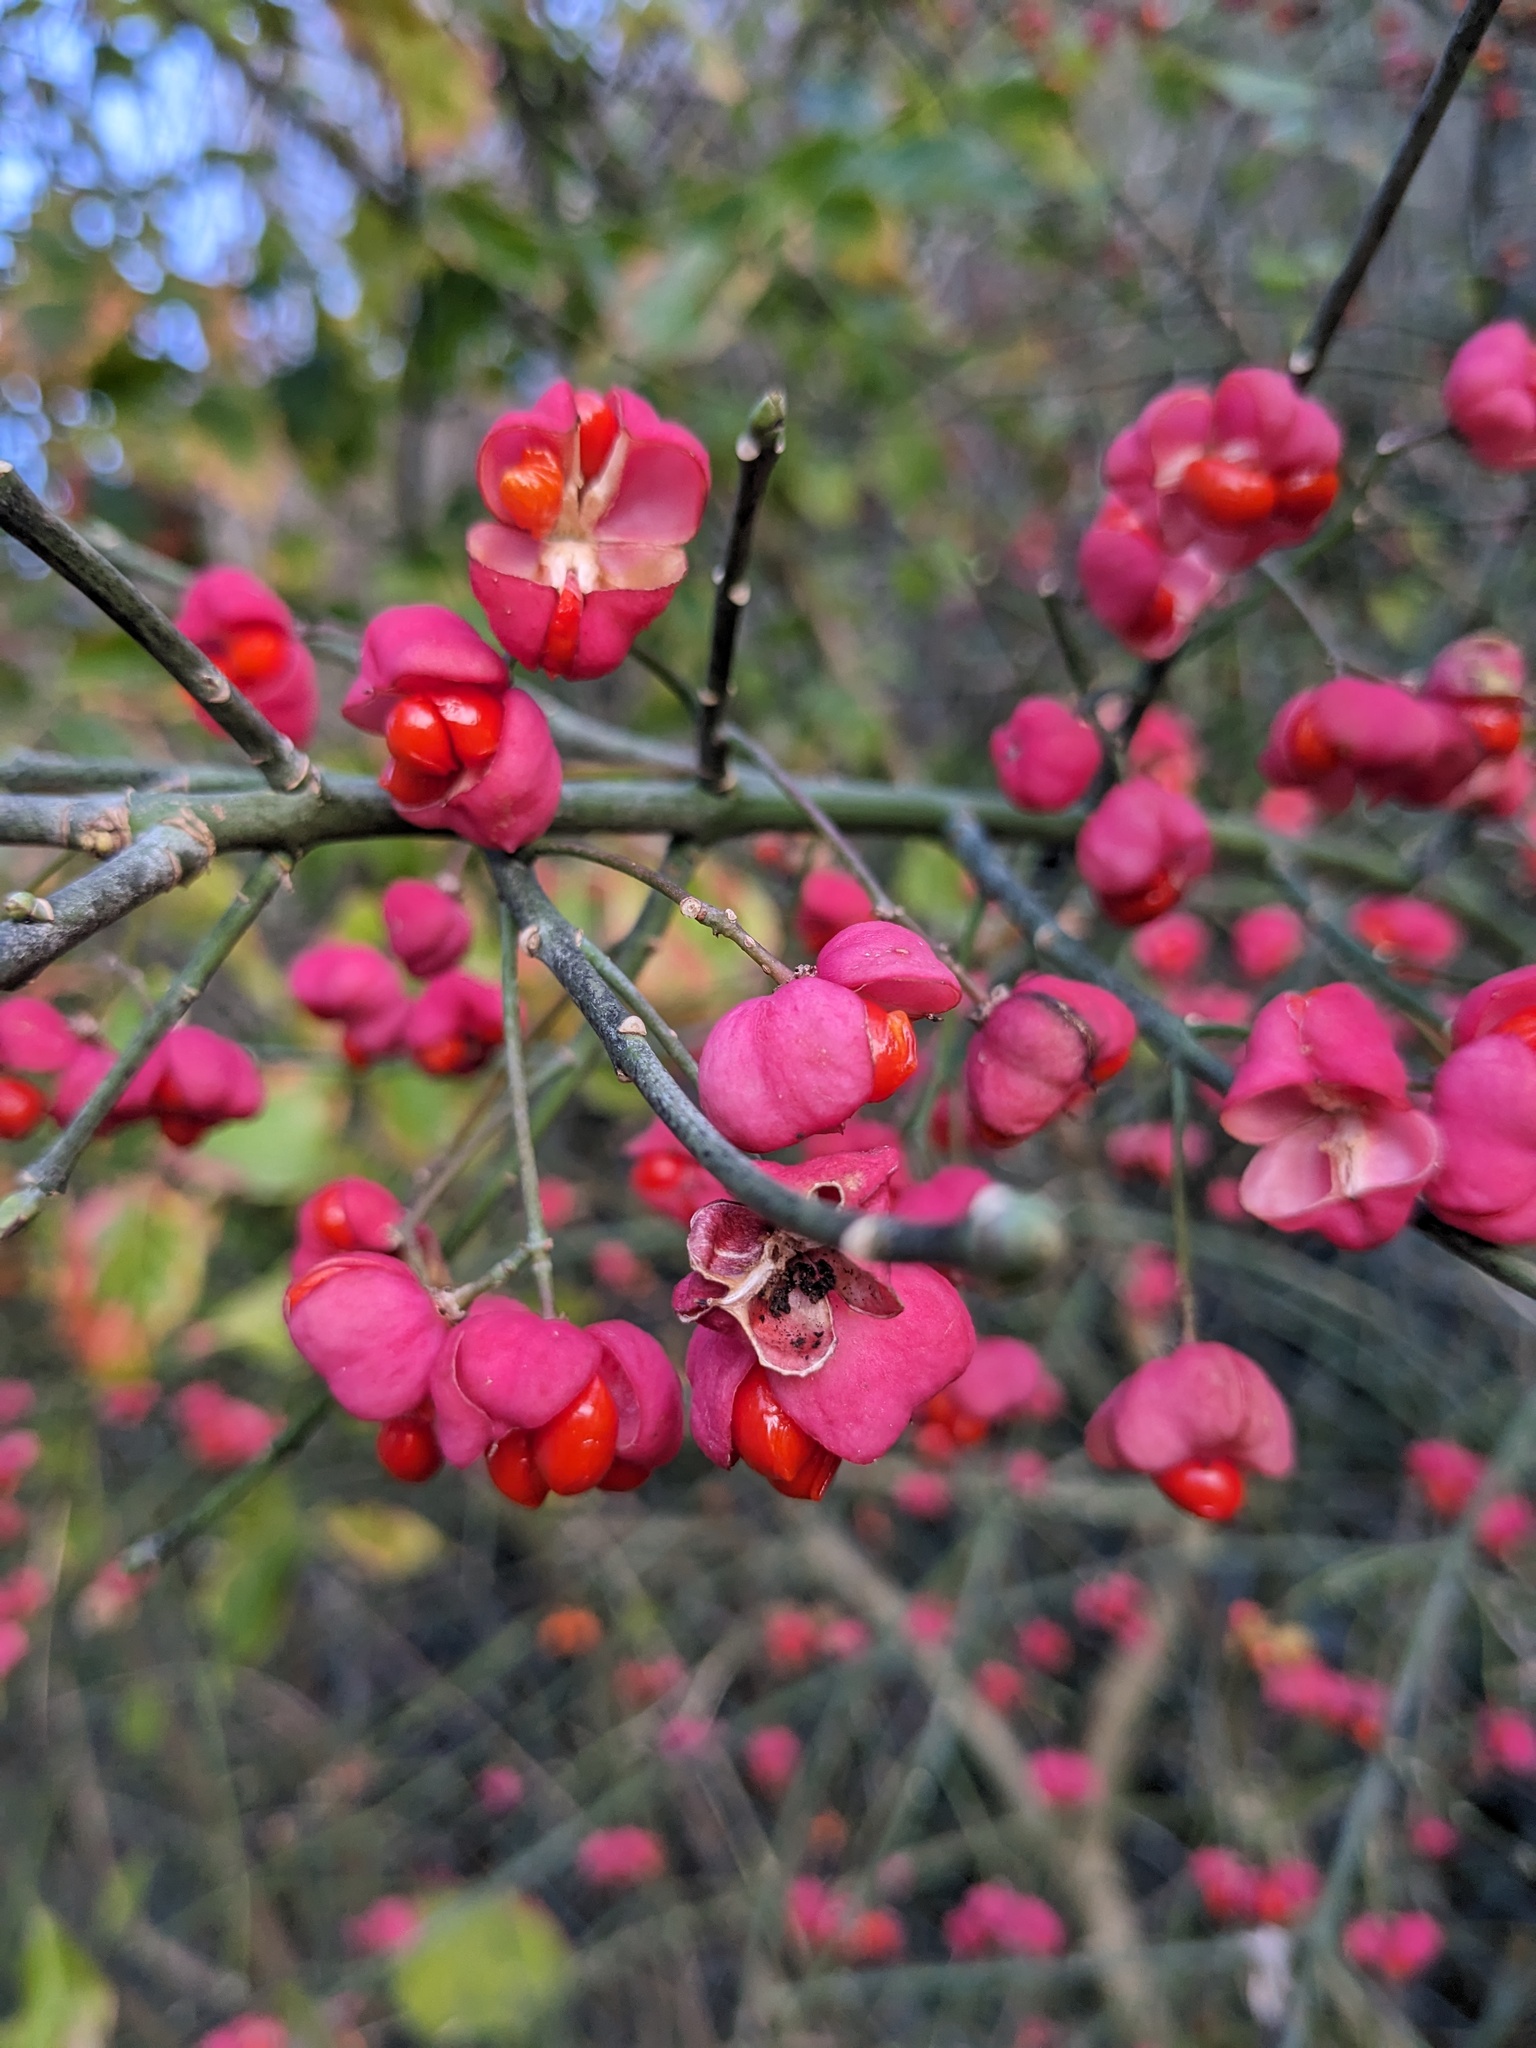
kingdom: Plantae
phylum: Tracheophyta
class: Magnoliopsida
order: Celastrales
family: Celastraceae
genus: Euonymus
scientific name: Euonymus europaeus
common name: Spindle
